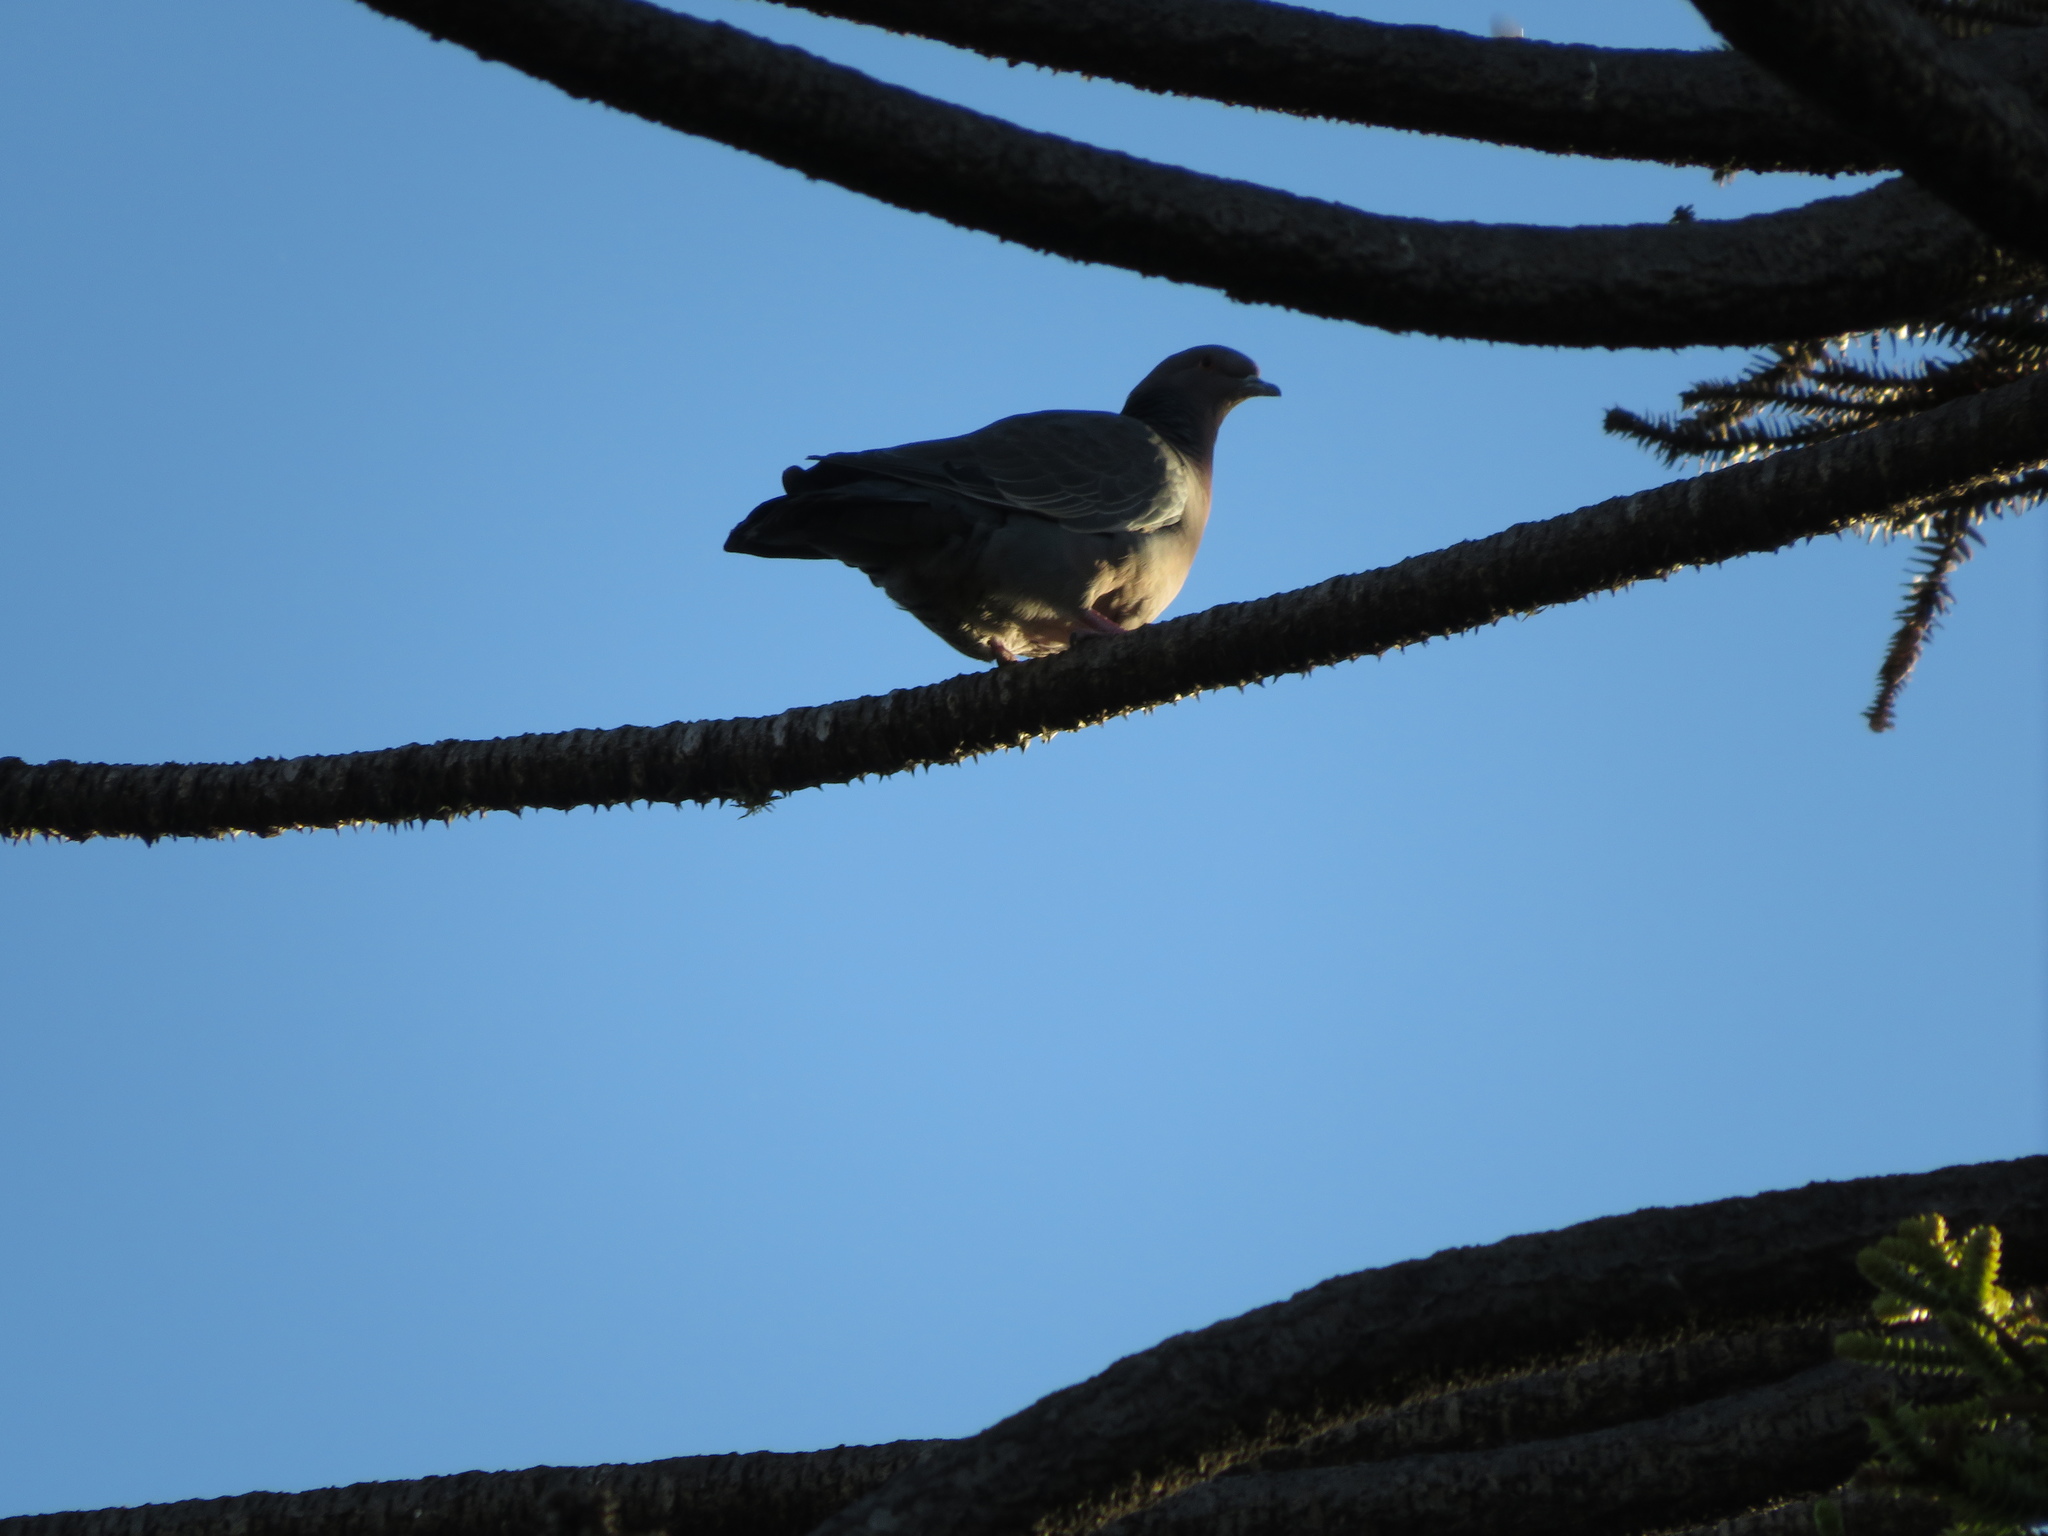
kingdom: Animalia
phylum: Chordata
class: Aves
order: Columbiformes
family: Columbidae
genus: Patagioenas
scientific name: Patagioenas picazuro
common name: Picazuro pigeon
